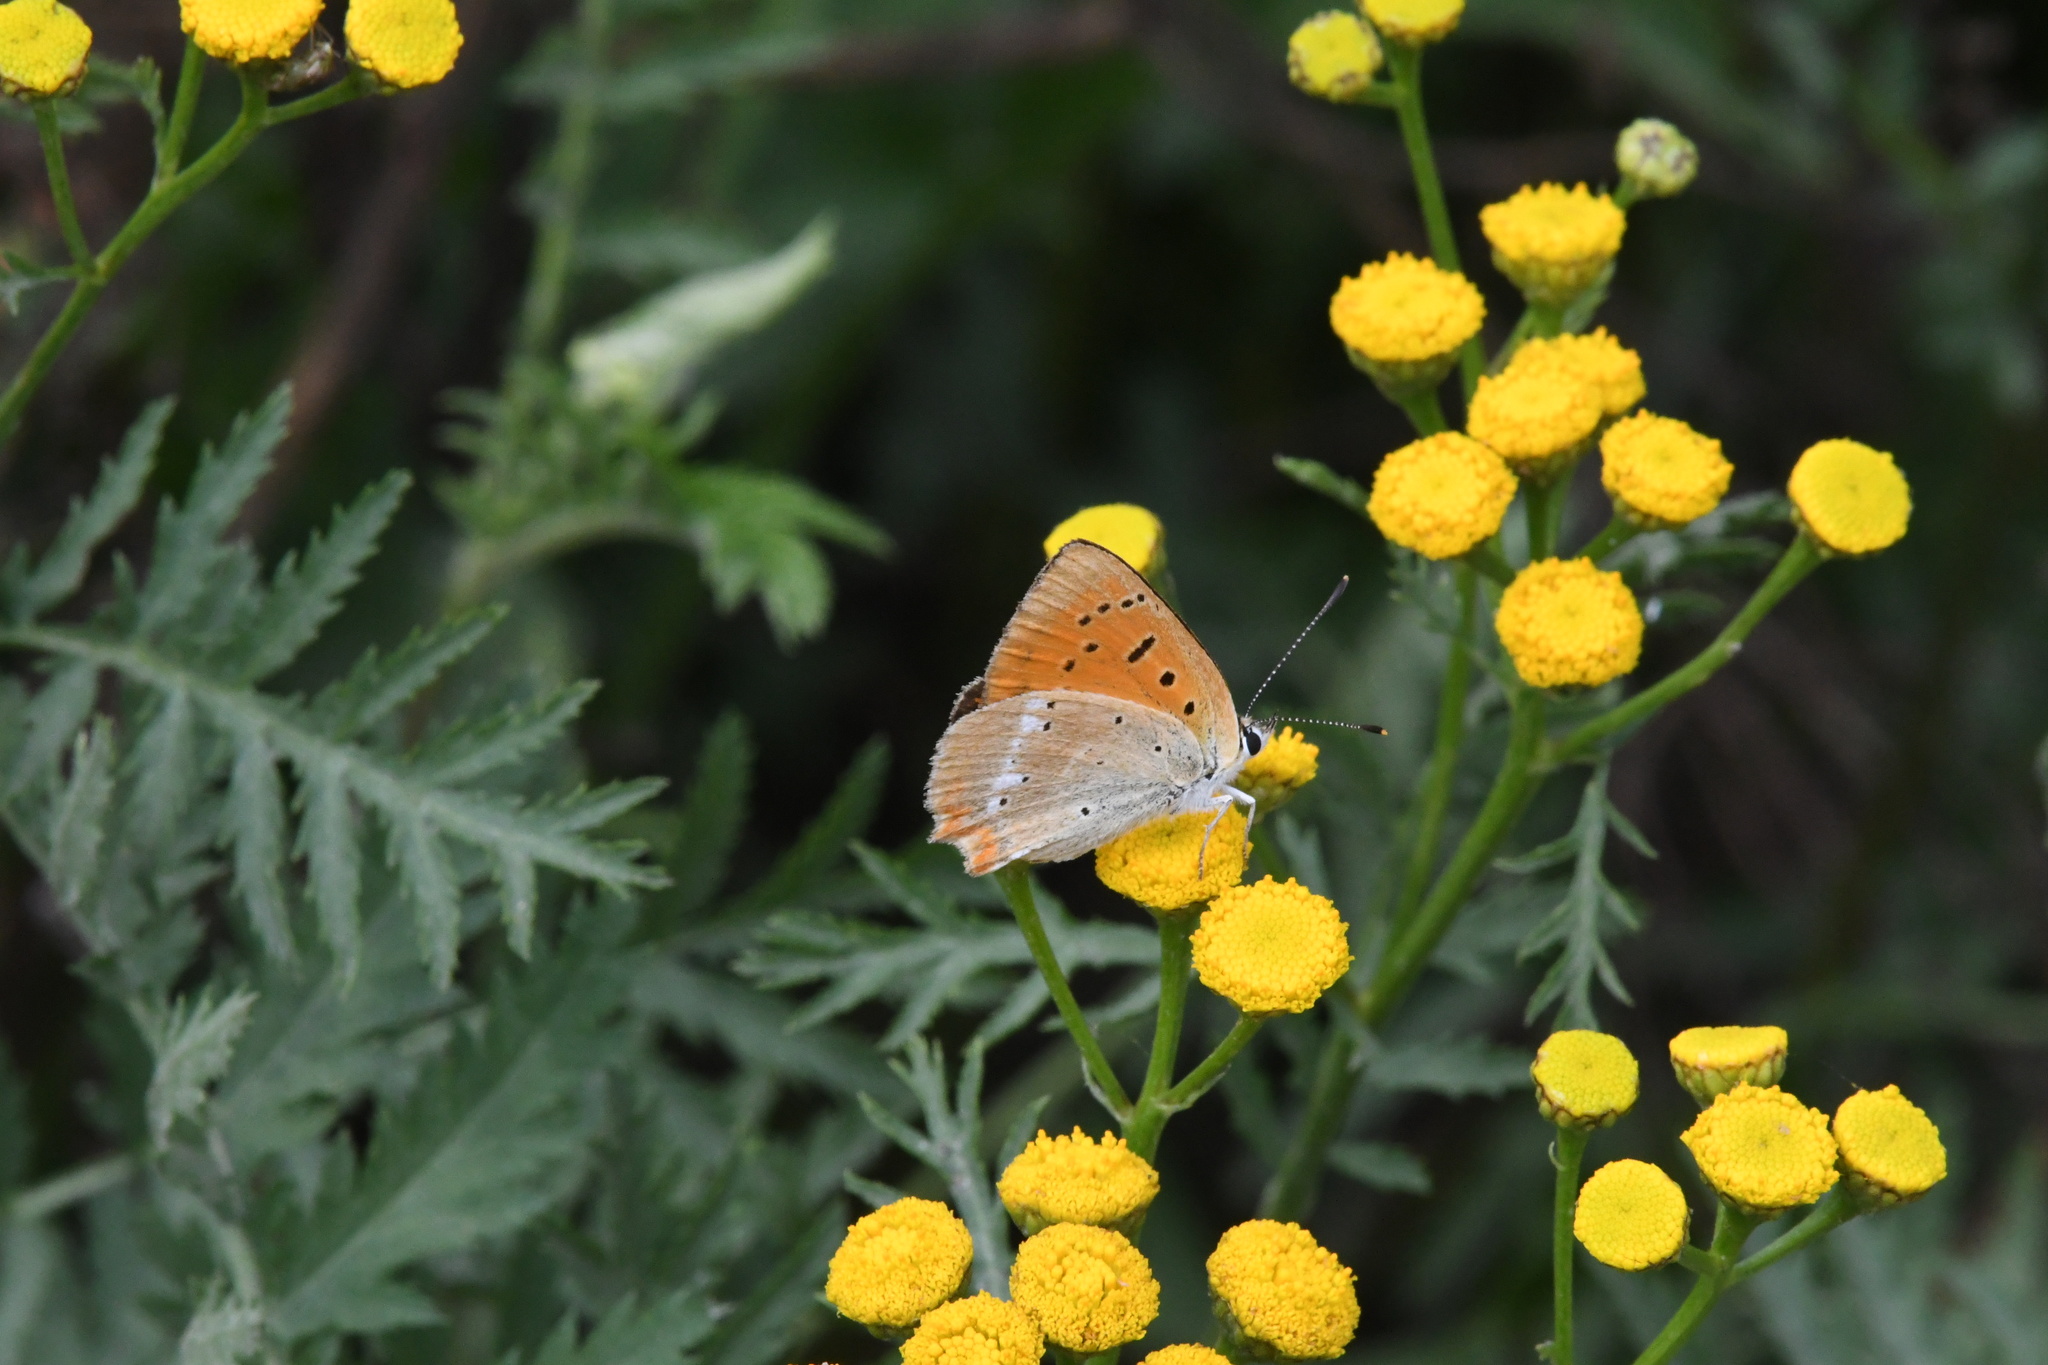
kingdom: Animalia
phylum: Arthropoda
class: Insecta
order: Lepidoptera
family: Lycaenidae
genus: Lycaena
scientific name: Lycaena virgaureae
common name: Scarce copper
